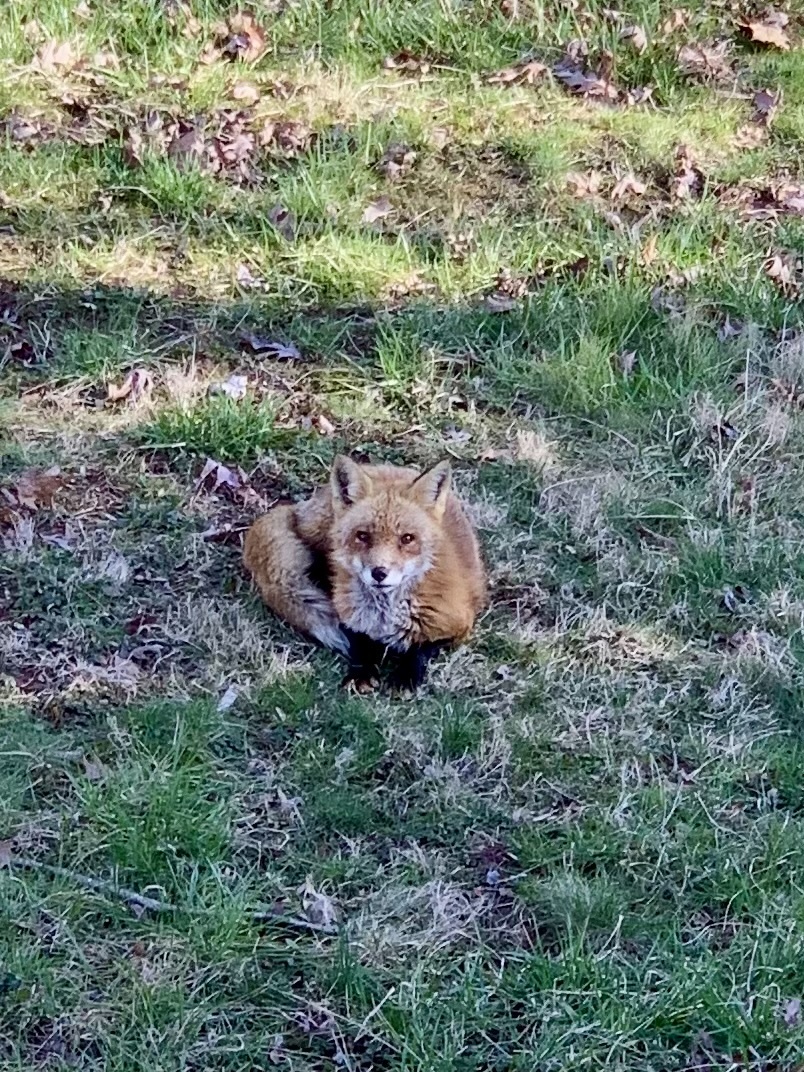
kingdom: Animalia
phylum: Chordata
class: Mammalia
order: Carnivora
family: Canidae
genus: Vulpes
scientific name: Vulpes vulpes
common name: Red fox
